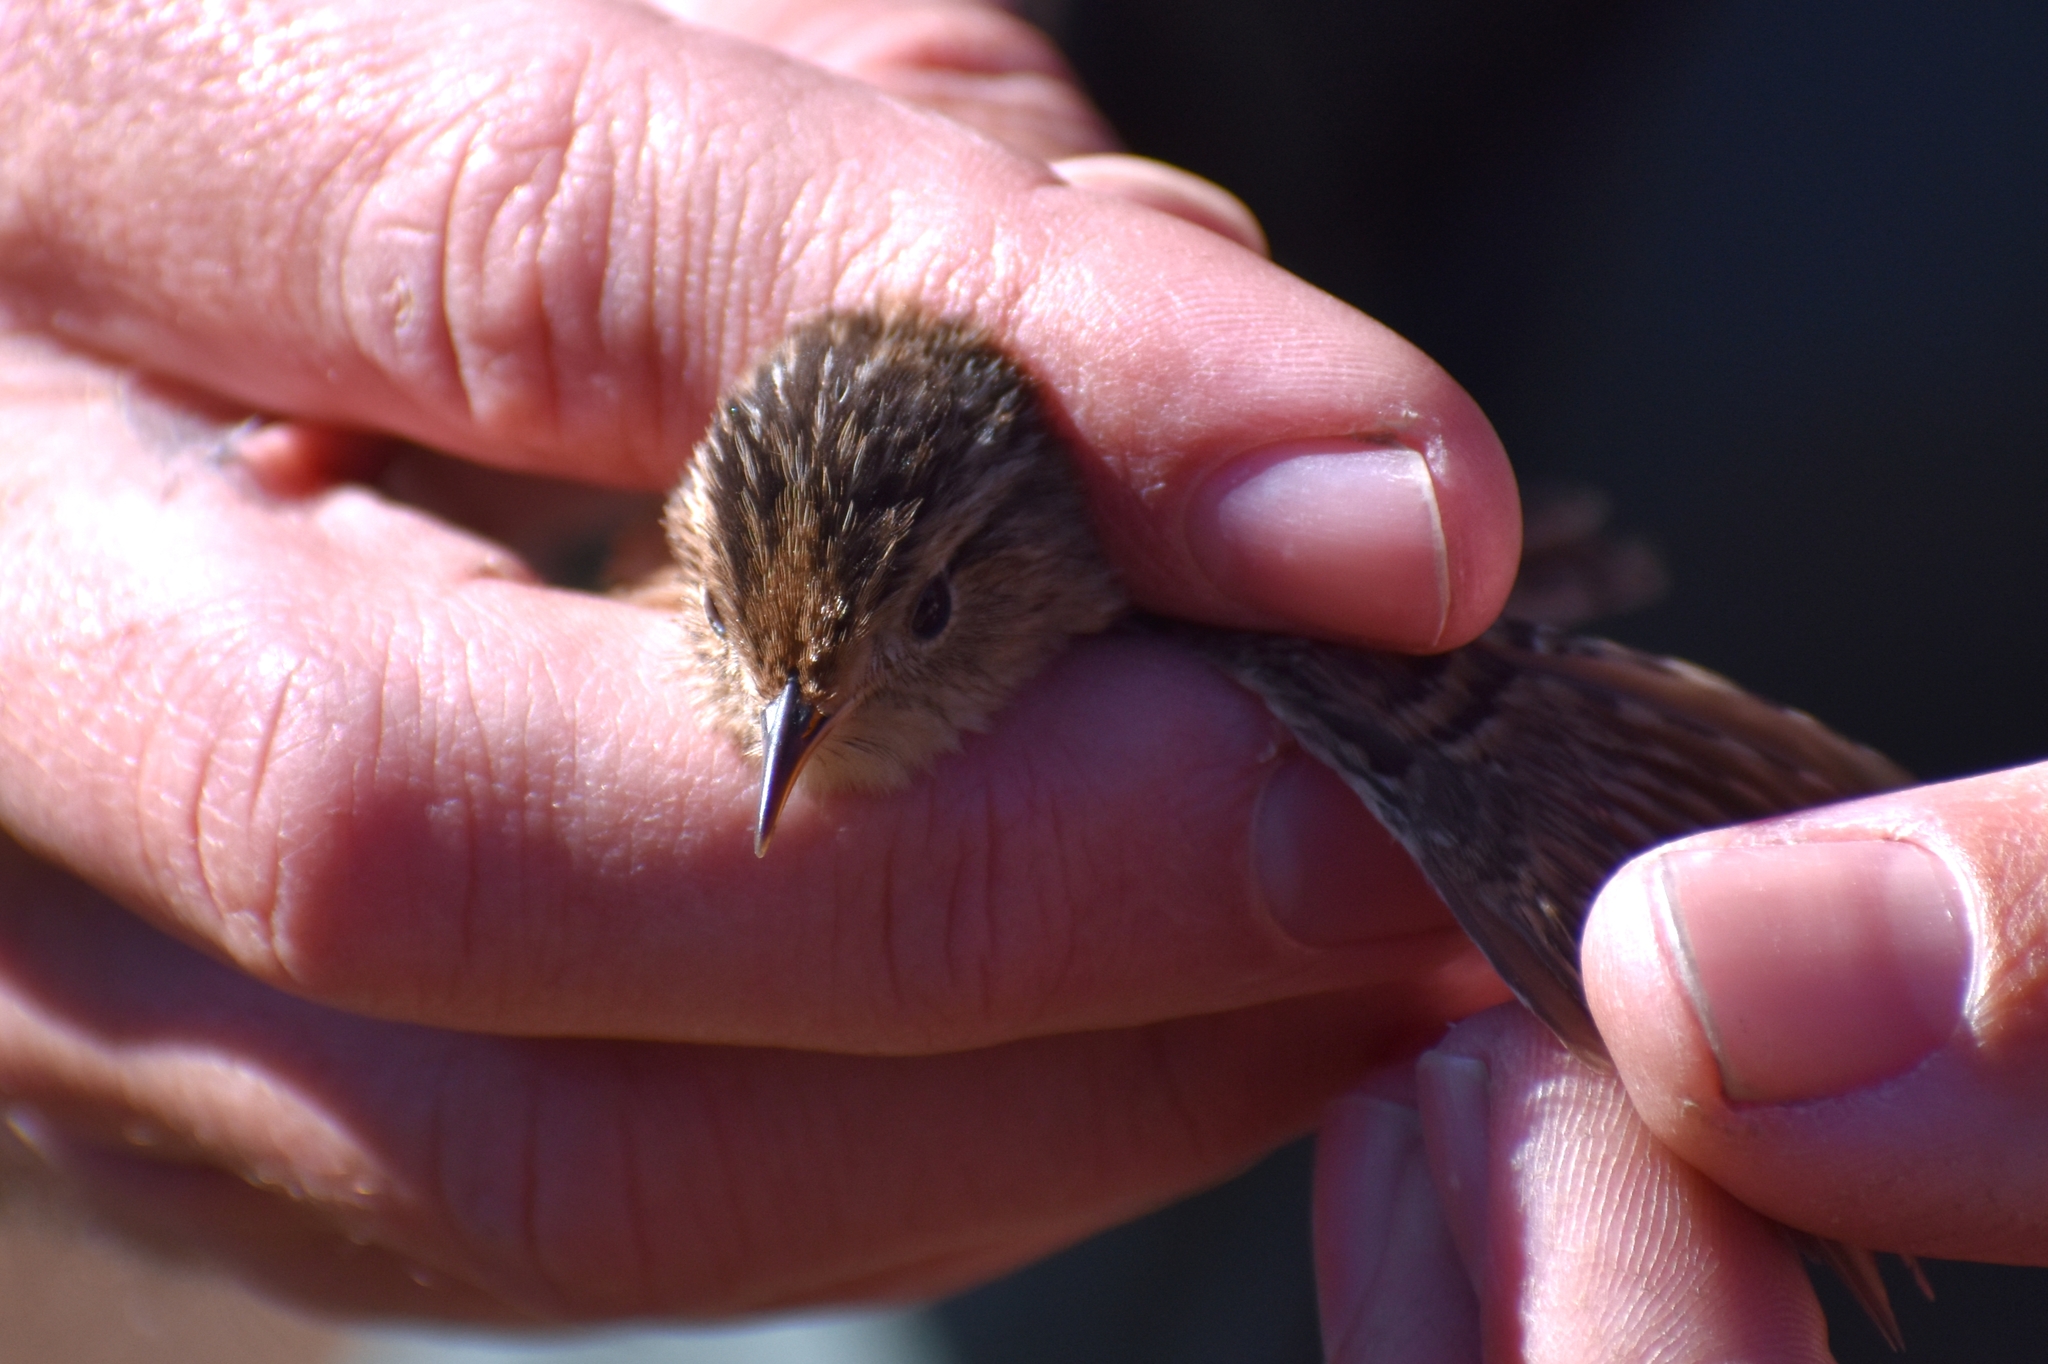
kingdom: Animalia
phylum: Chordata
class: Aves
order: Passeriformes
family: Troglodytidae
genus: Cistothorus
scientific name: Cistothorus platensis
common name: Sedge wren
